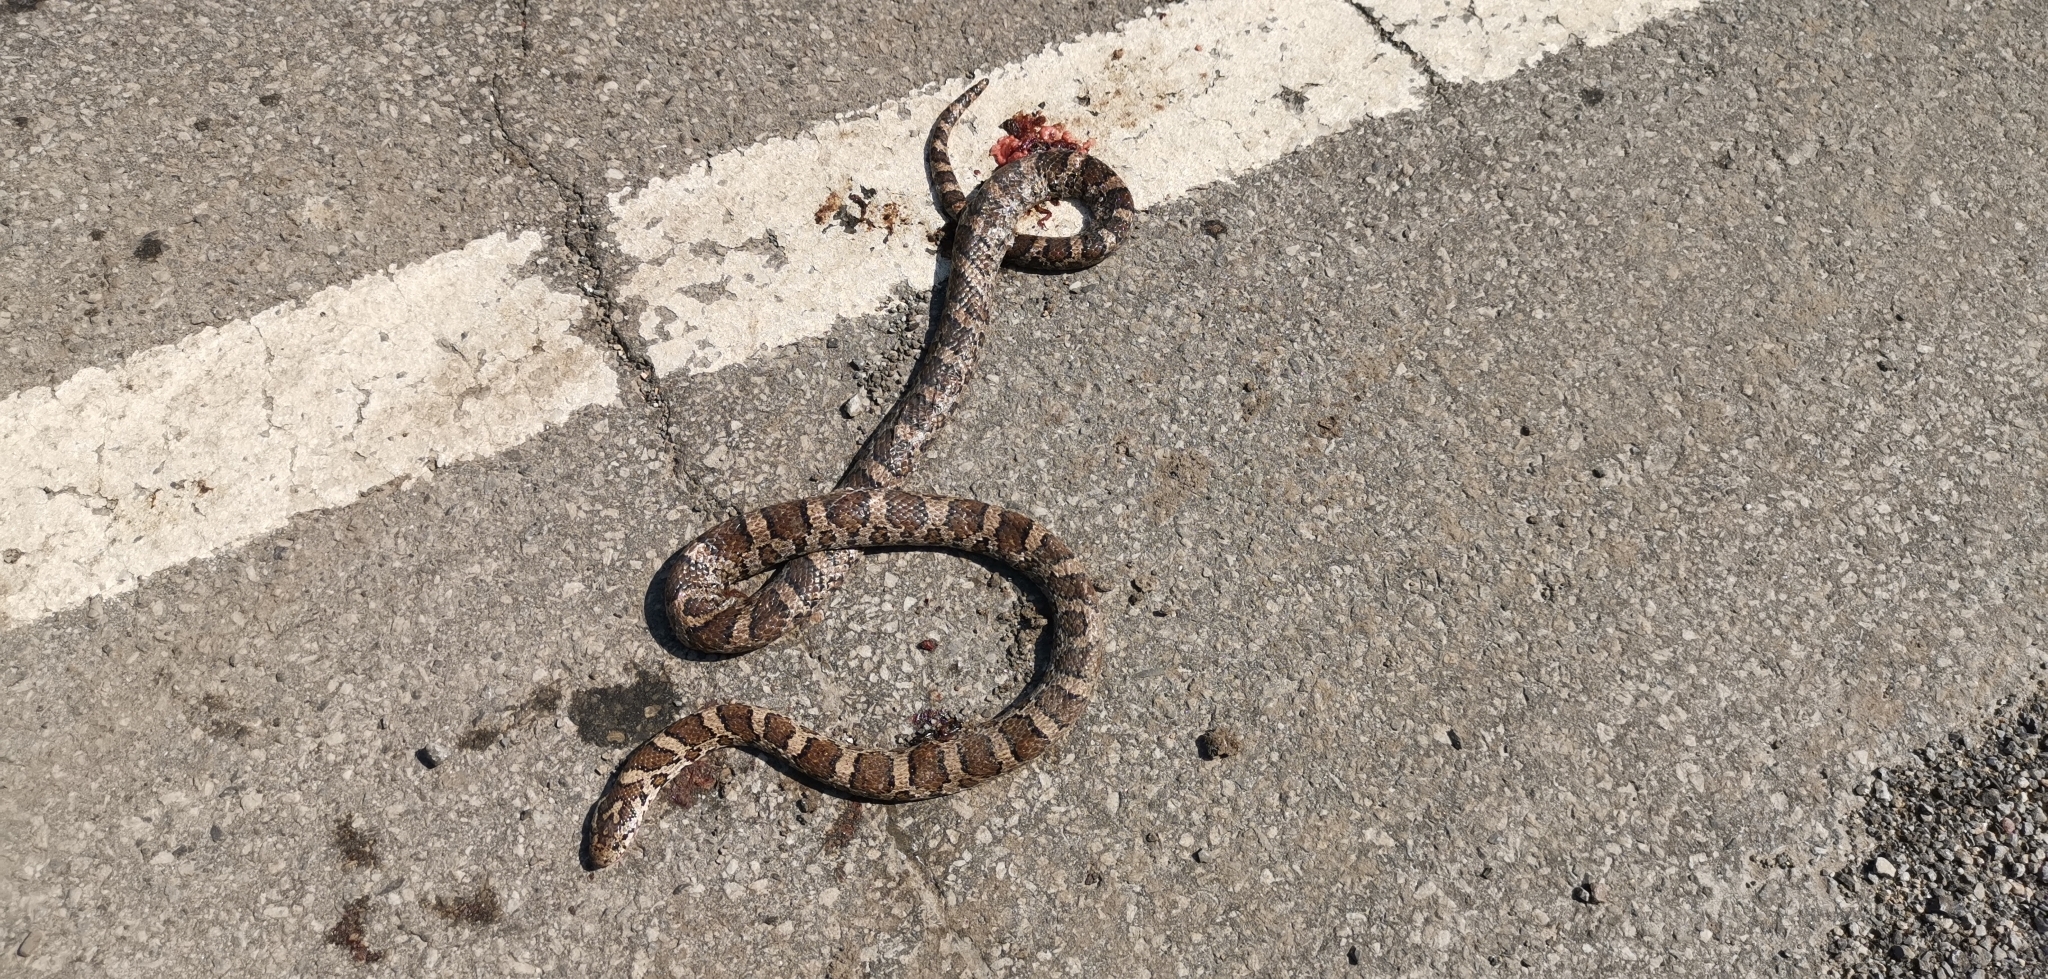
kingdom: Animalia
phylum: Chordata
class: Squamata
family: Colubridae
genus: Lampropeltis
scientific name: Lampropeltis triangulum
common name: Eastern milksnake
